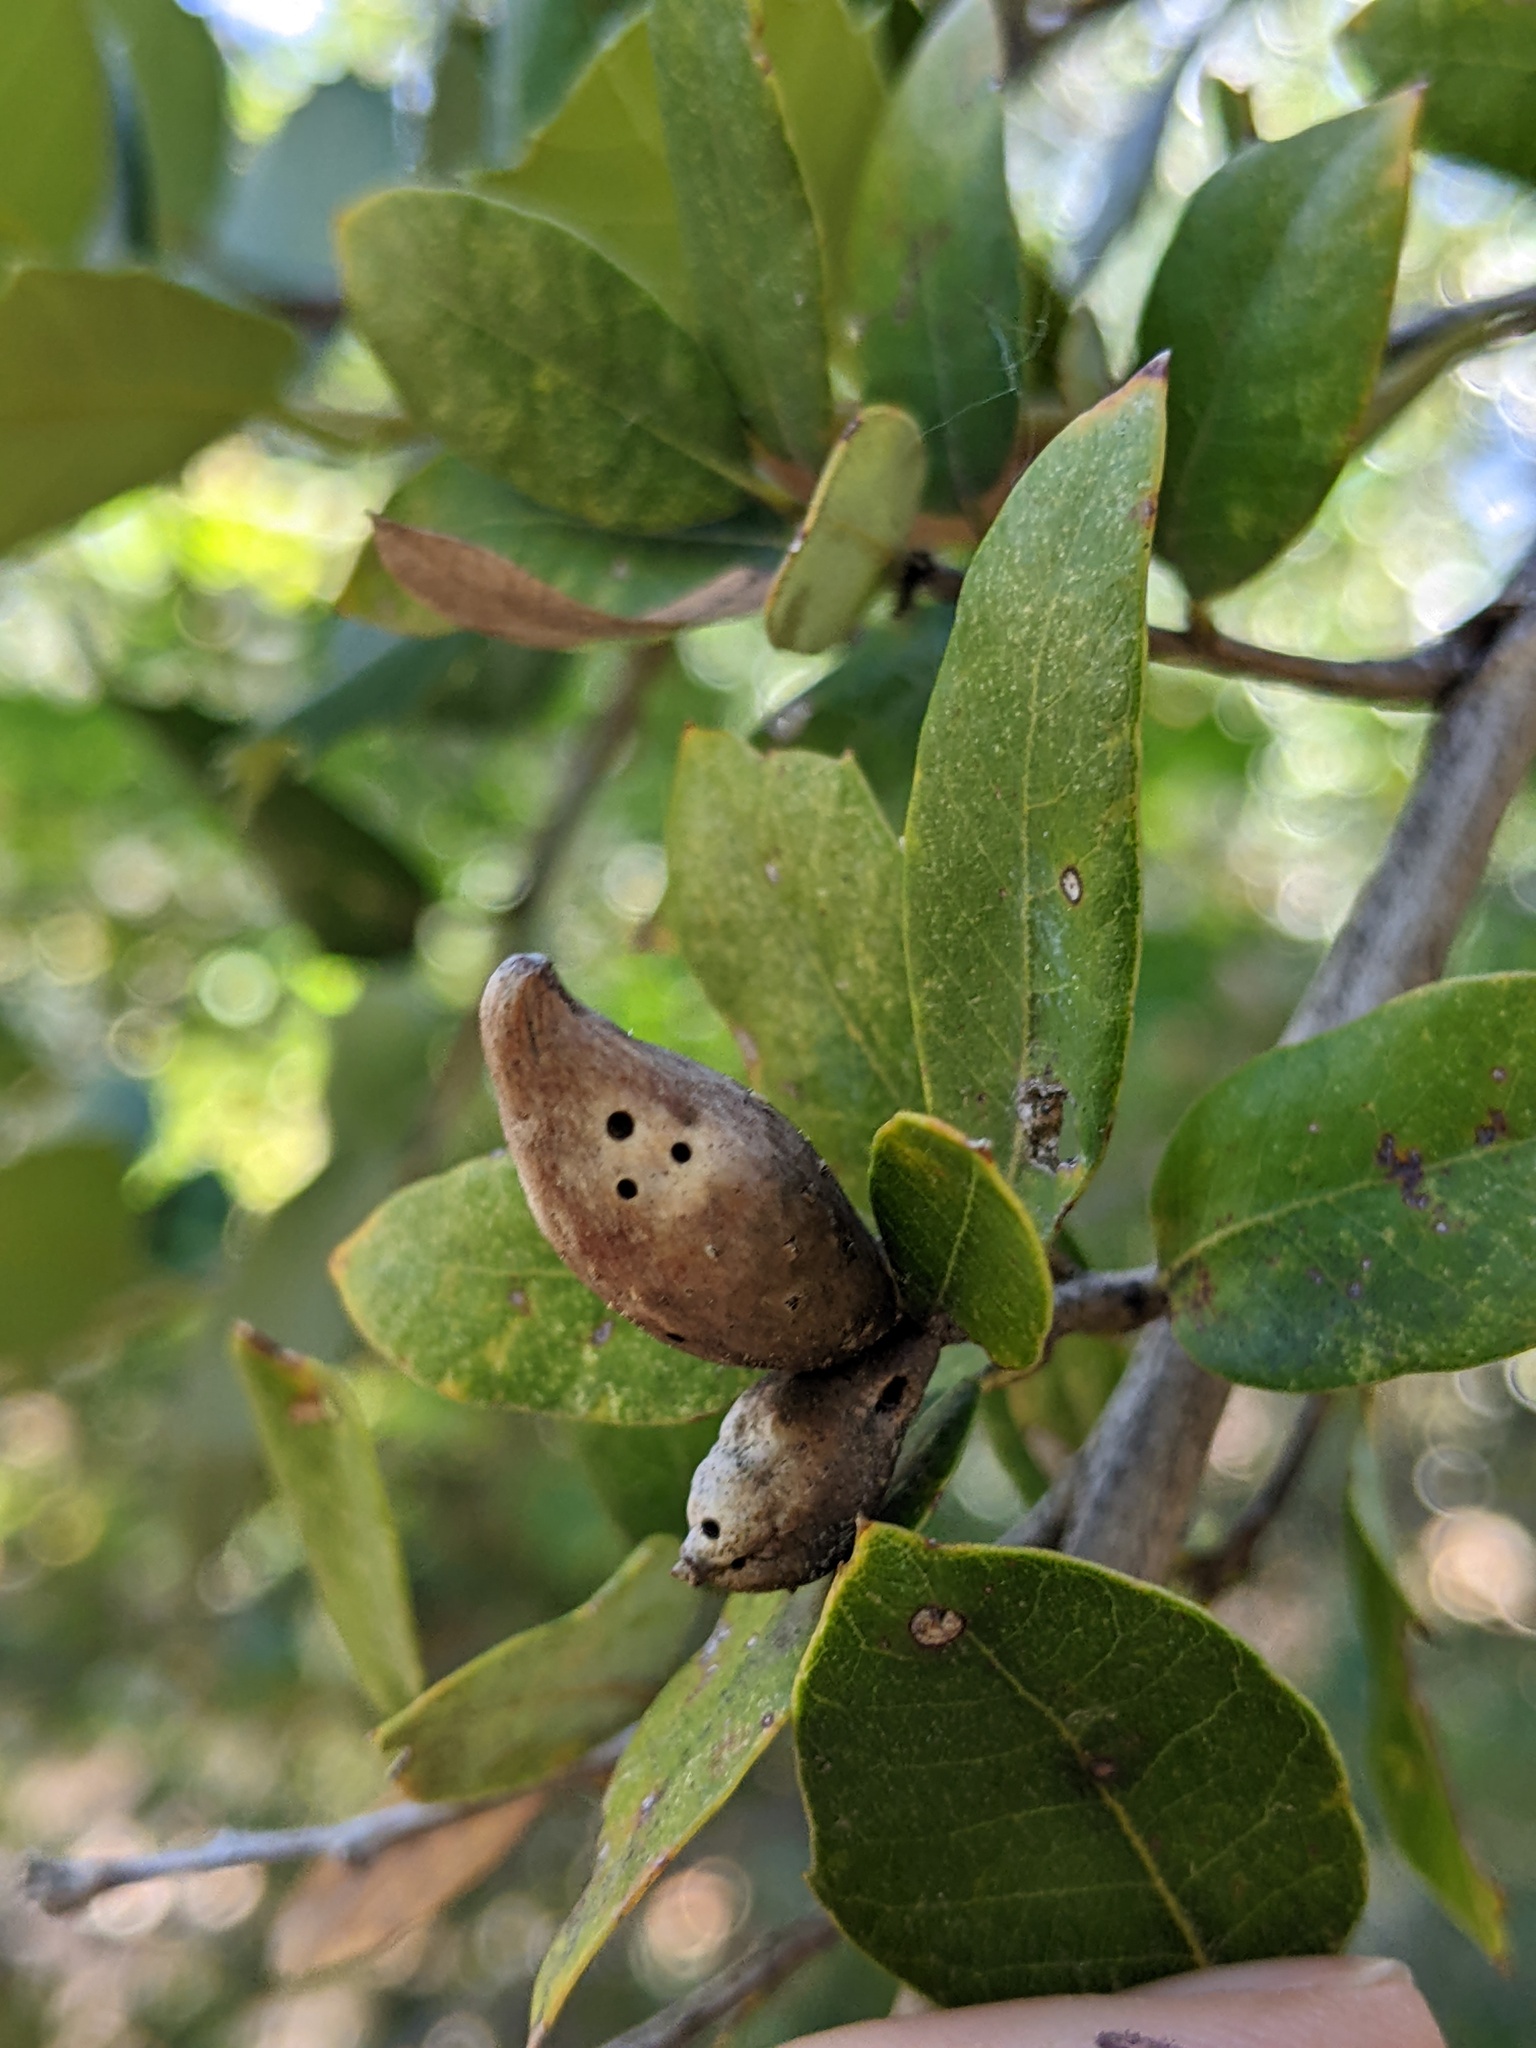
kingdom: Animalia
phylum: Arthropoda
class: Insecta
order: Hymenoptera
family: Cynipidae
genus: Heteroecus
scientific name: Heteroecus pacificus
